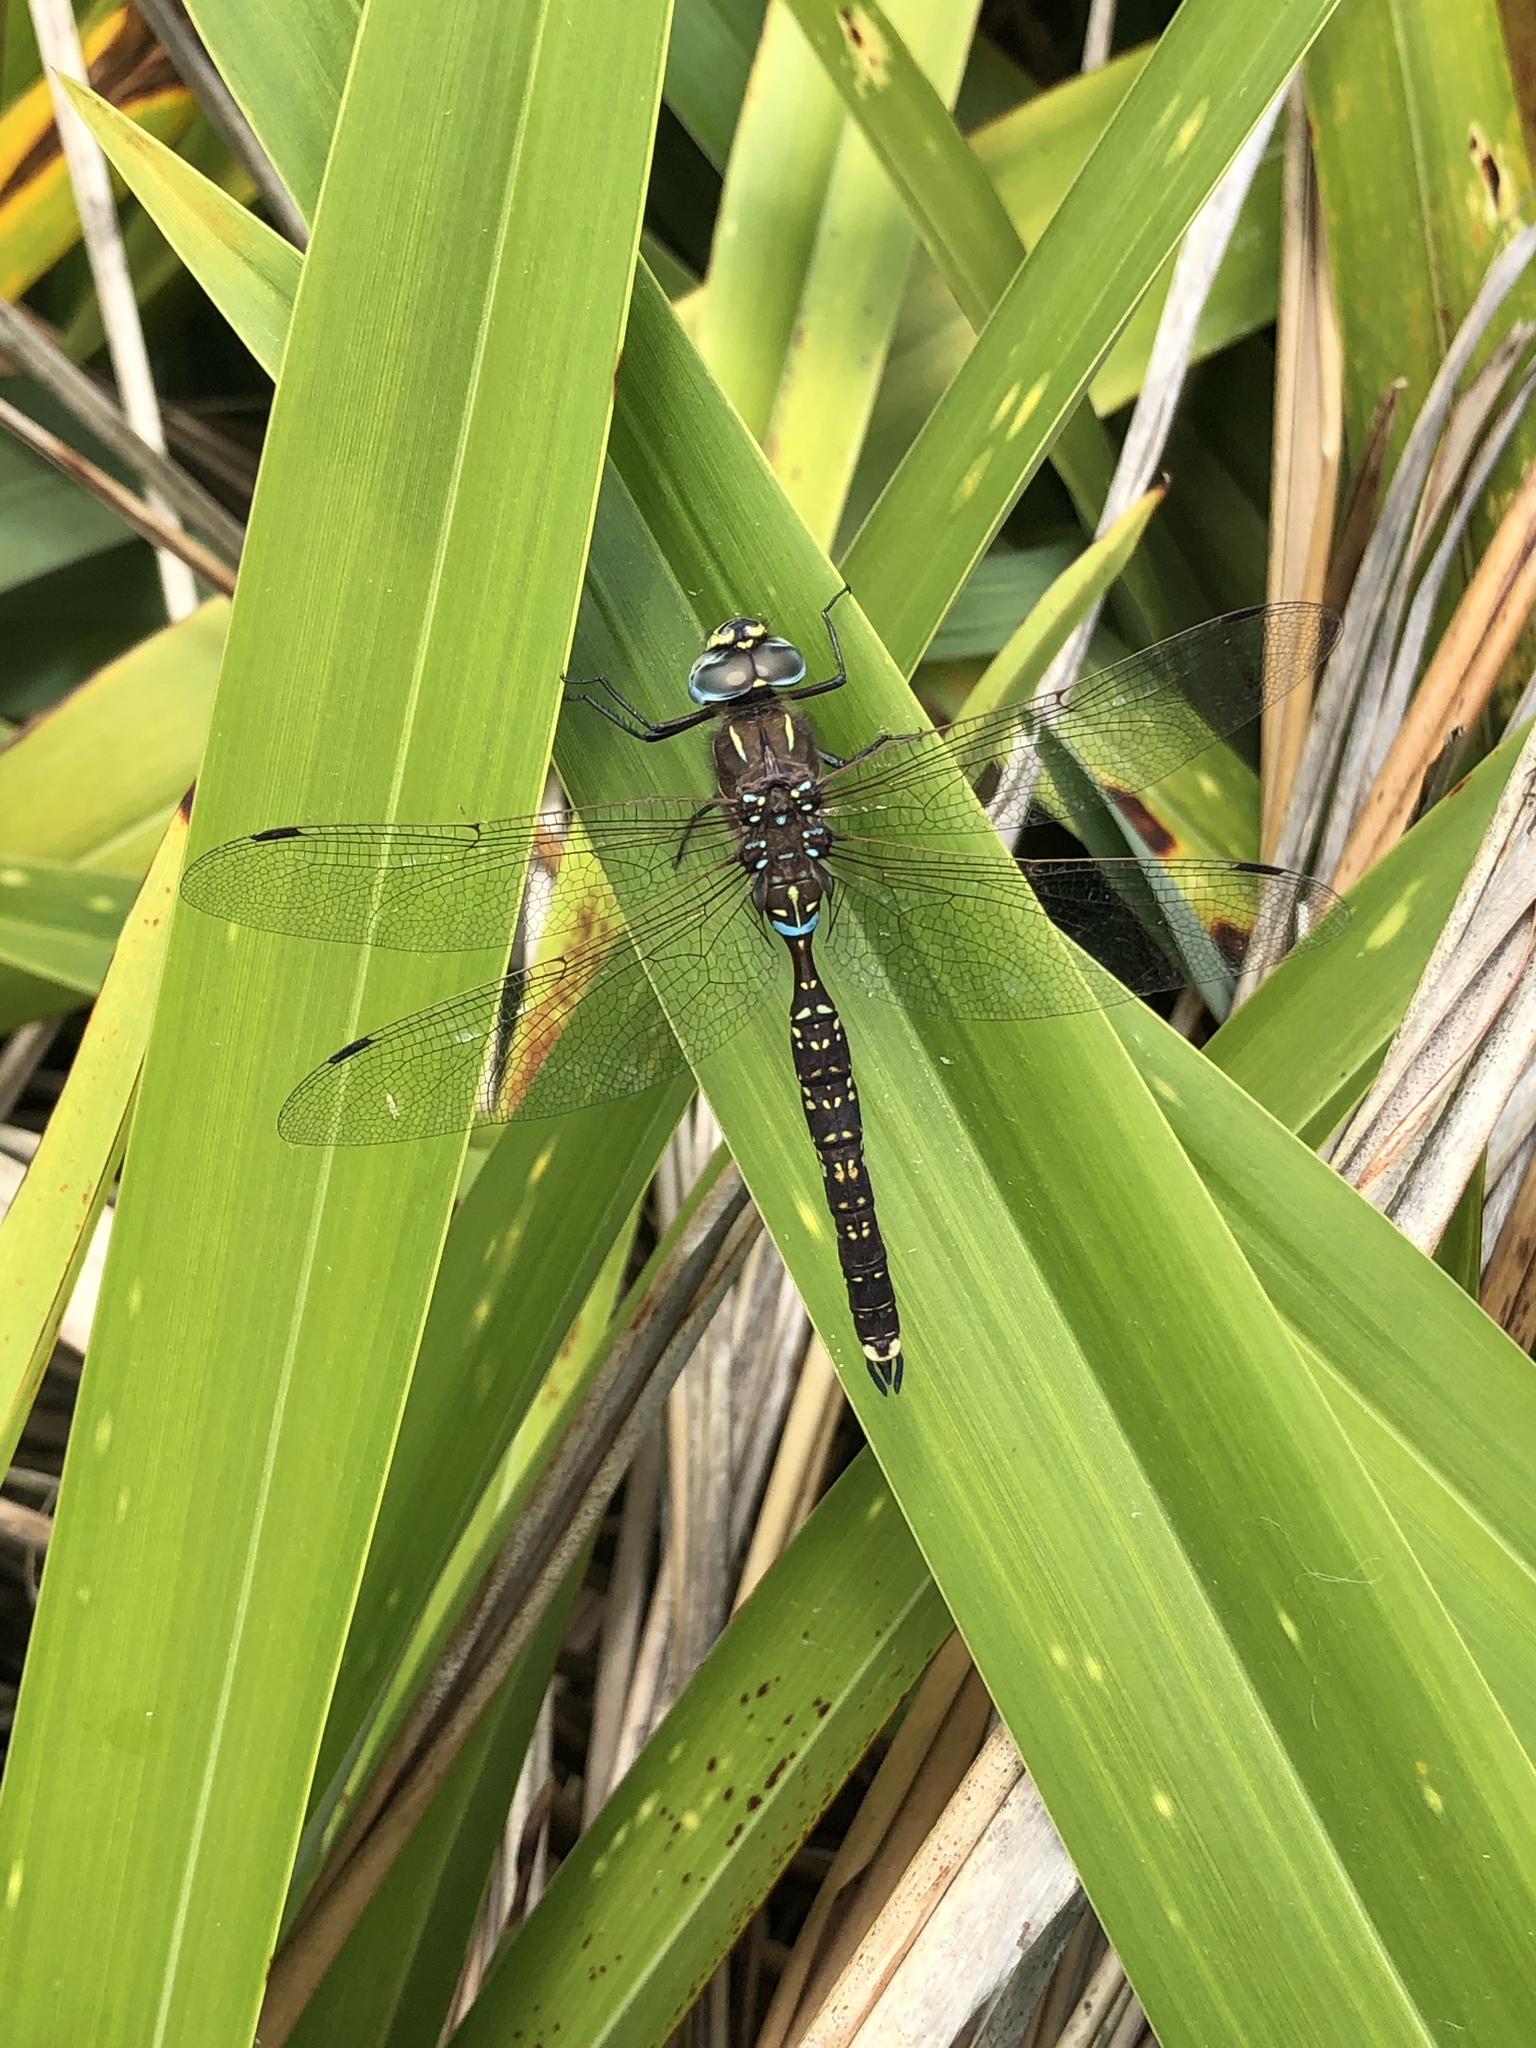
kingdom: Animalia
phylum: Arthropoda
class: Insecta
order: Odonata
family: Aeshnidae
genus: Aeshna
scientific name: Aeshna brevistyla
